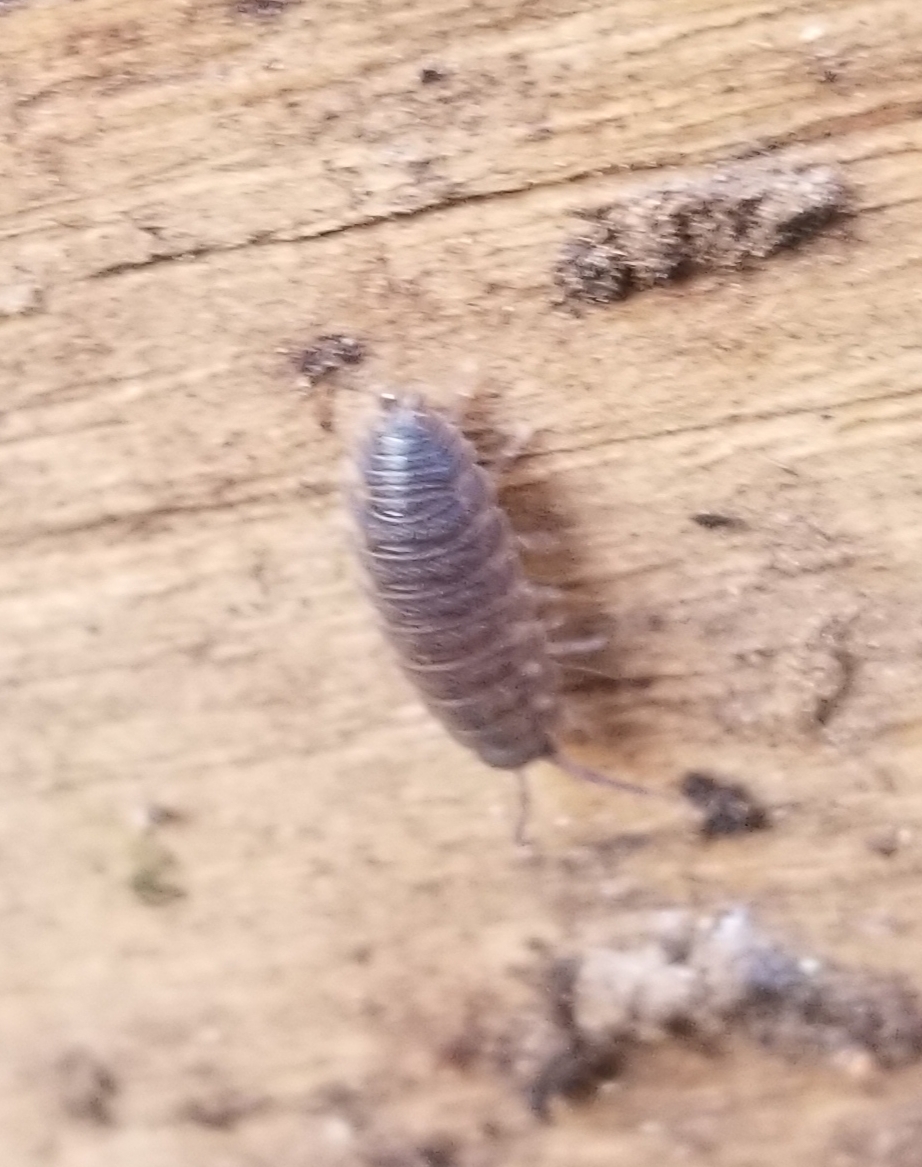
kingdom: Animalia
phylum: Arthropoda
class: Malacostraca
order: Isopoda
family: Porcellionidae
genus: Porcellio
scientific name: Porcellio scaber
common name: Common rough woodlouse
